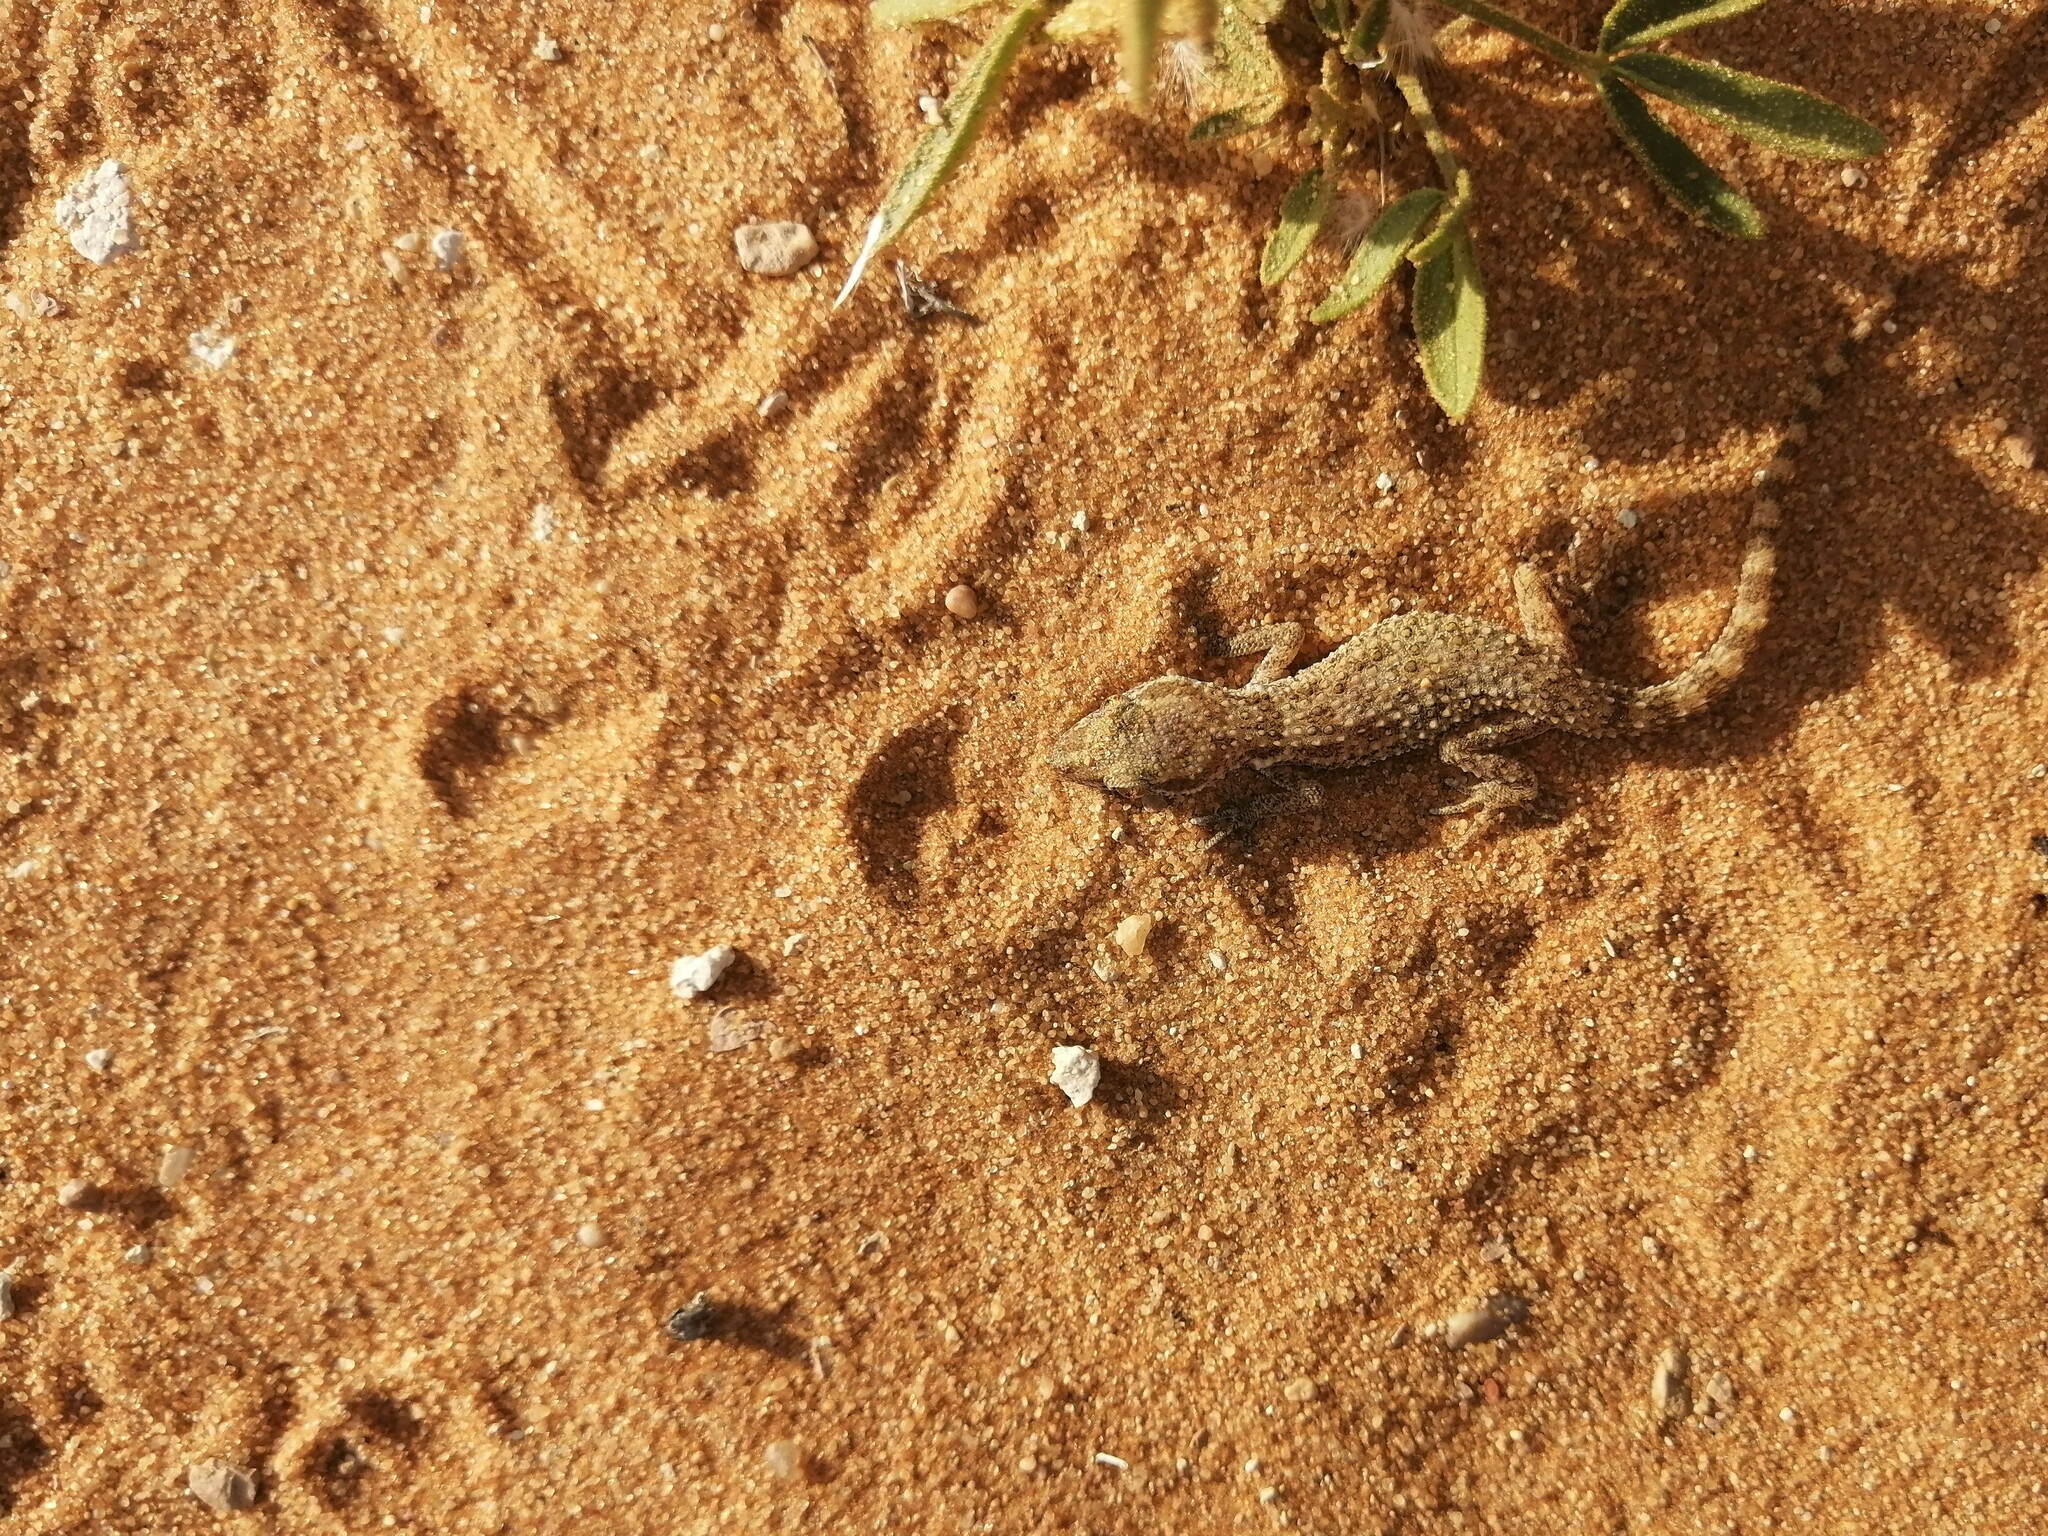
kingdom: Animalia
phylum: Chordata
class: Squamata
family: Gekkonidae
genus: Bunopus
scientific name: Bunopus tuberculatus
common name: Southern tuberculated gecko
